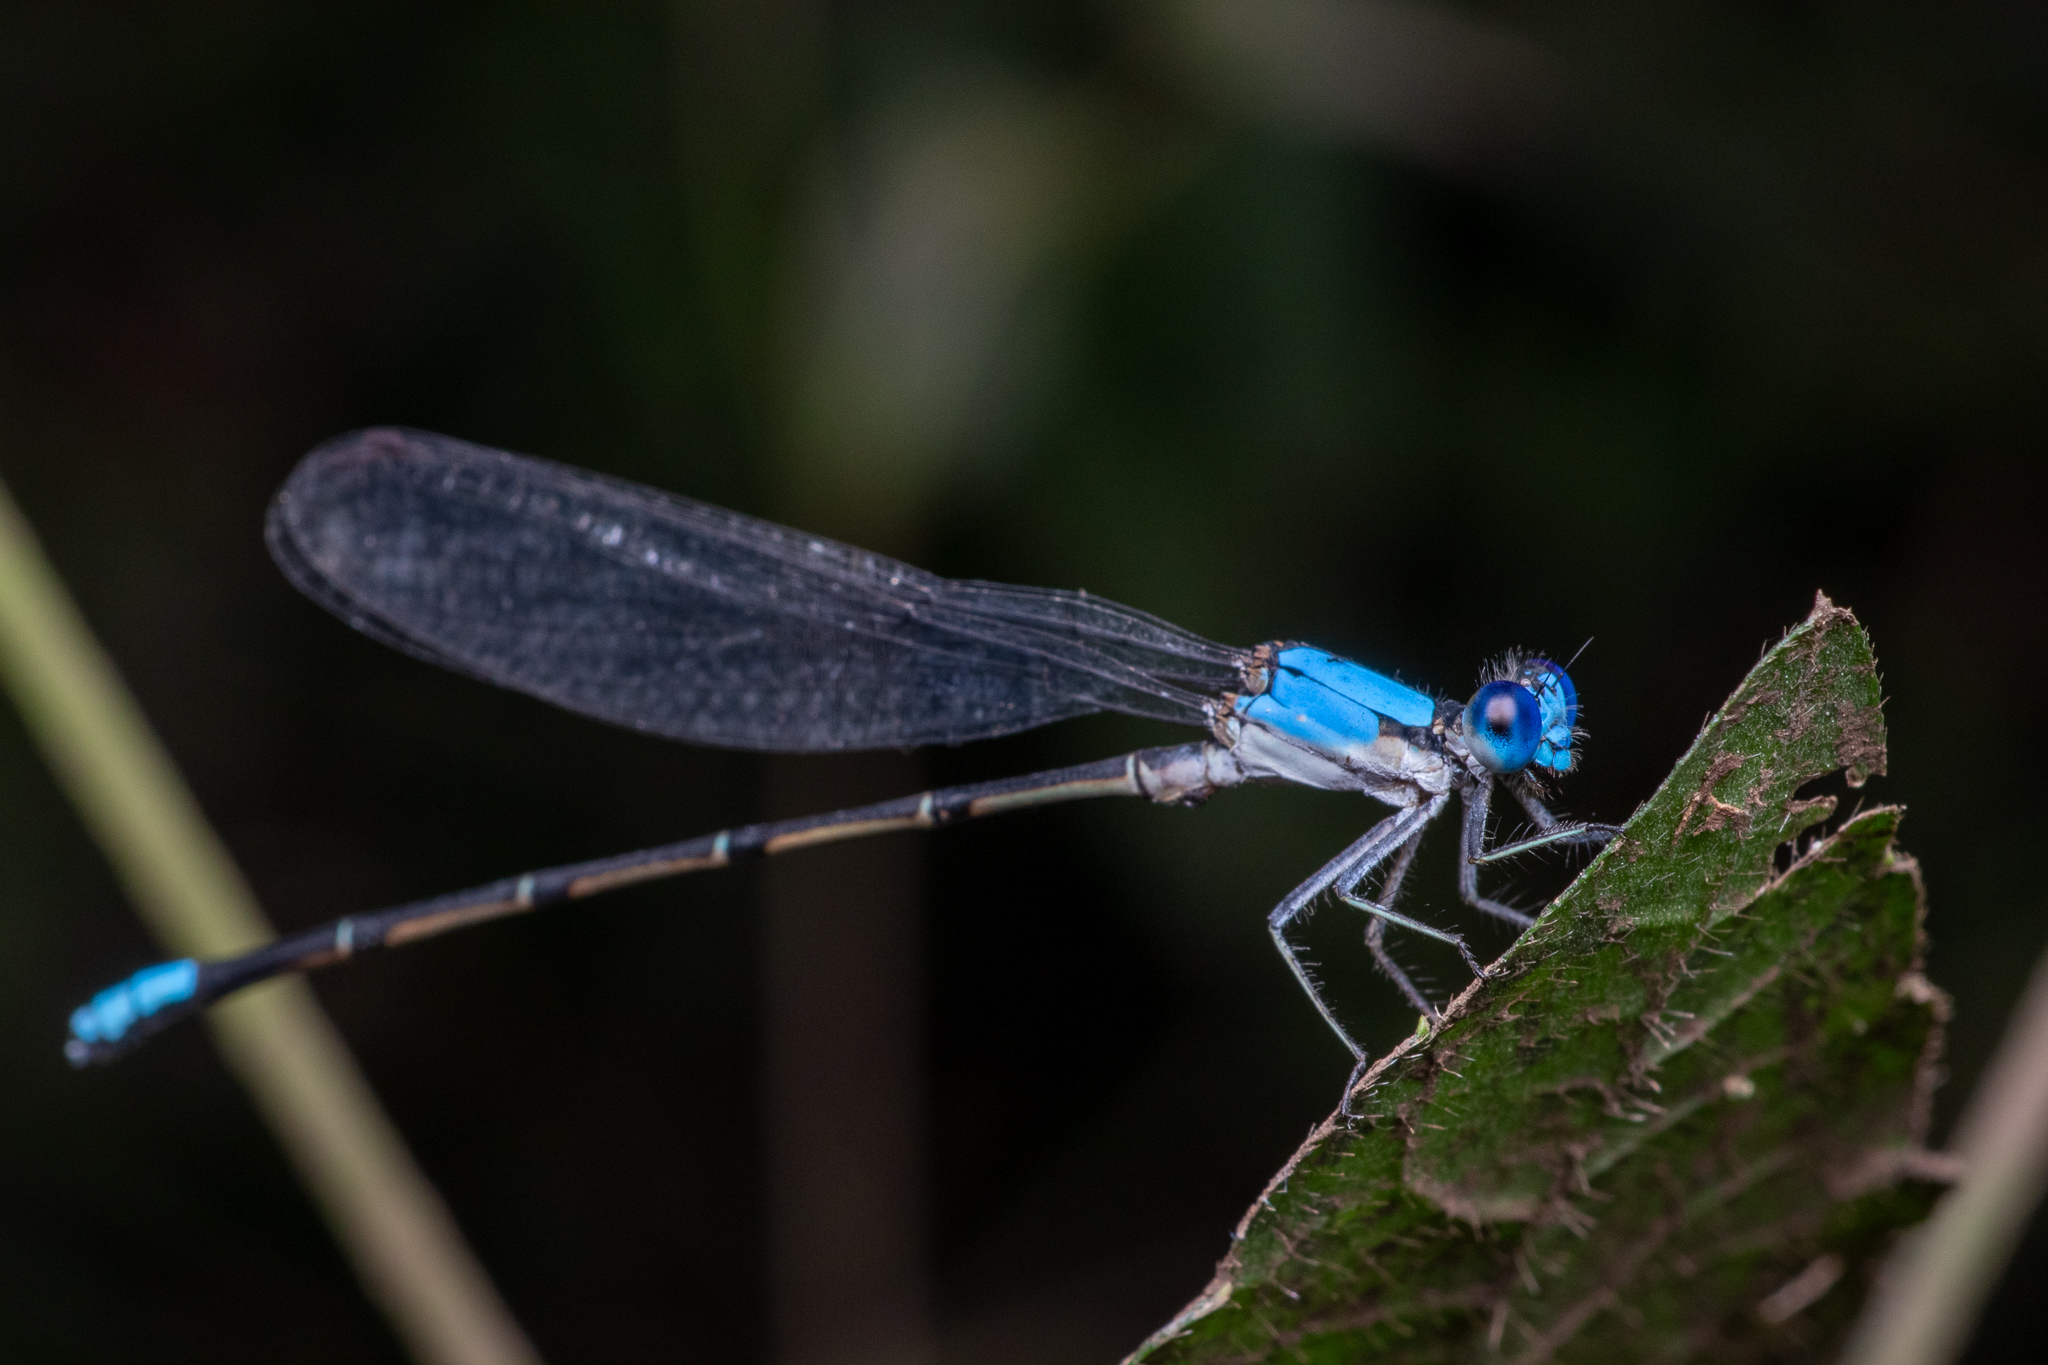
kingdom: Animalia
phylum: Arthropoda
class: Insecta
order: Odonata
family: Coenagrionidae
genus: Argia
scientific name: Argia apicalis
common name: Blue-fronted dancer
